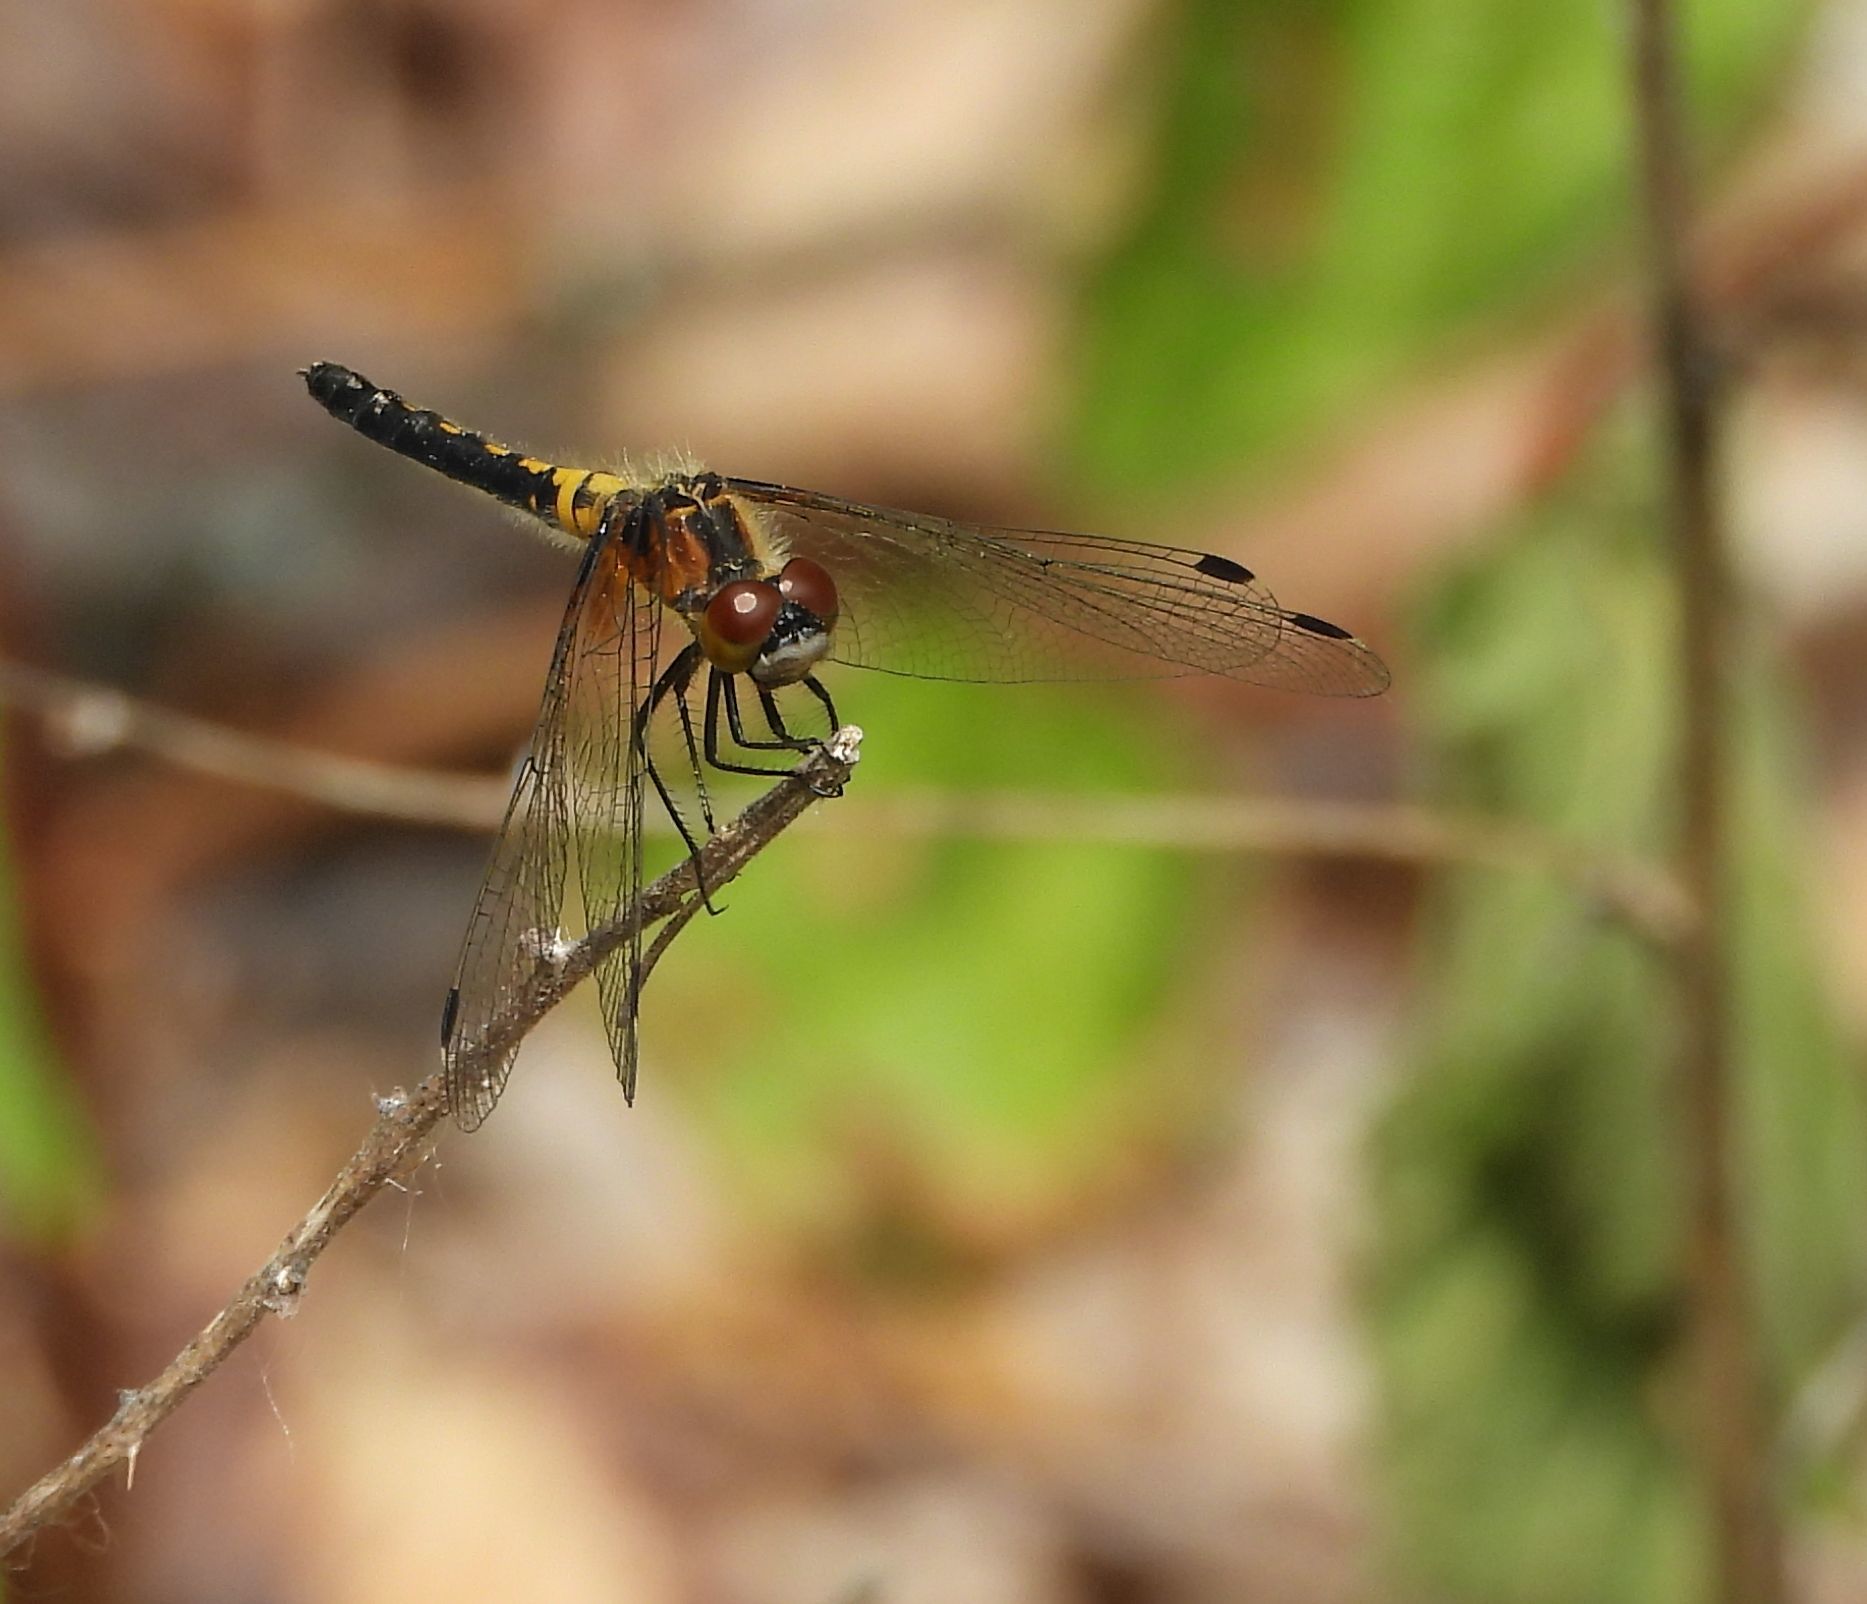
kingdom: Animalia
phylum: Arthropoda
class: Insecta
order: Odonata
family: Libellulidae
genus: Leucorrhinia
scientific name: Leucorrhinia frigida
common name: Frosted whiteface
